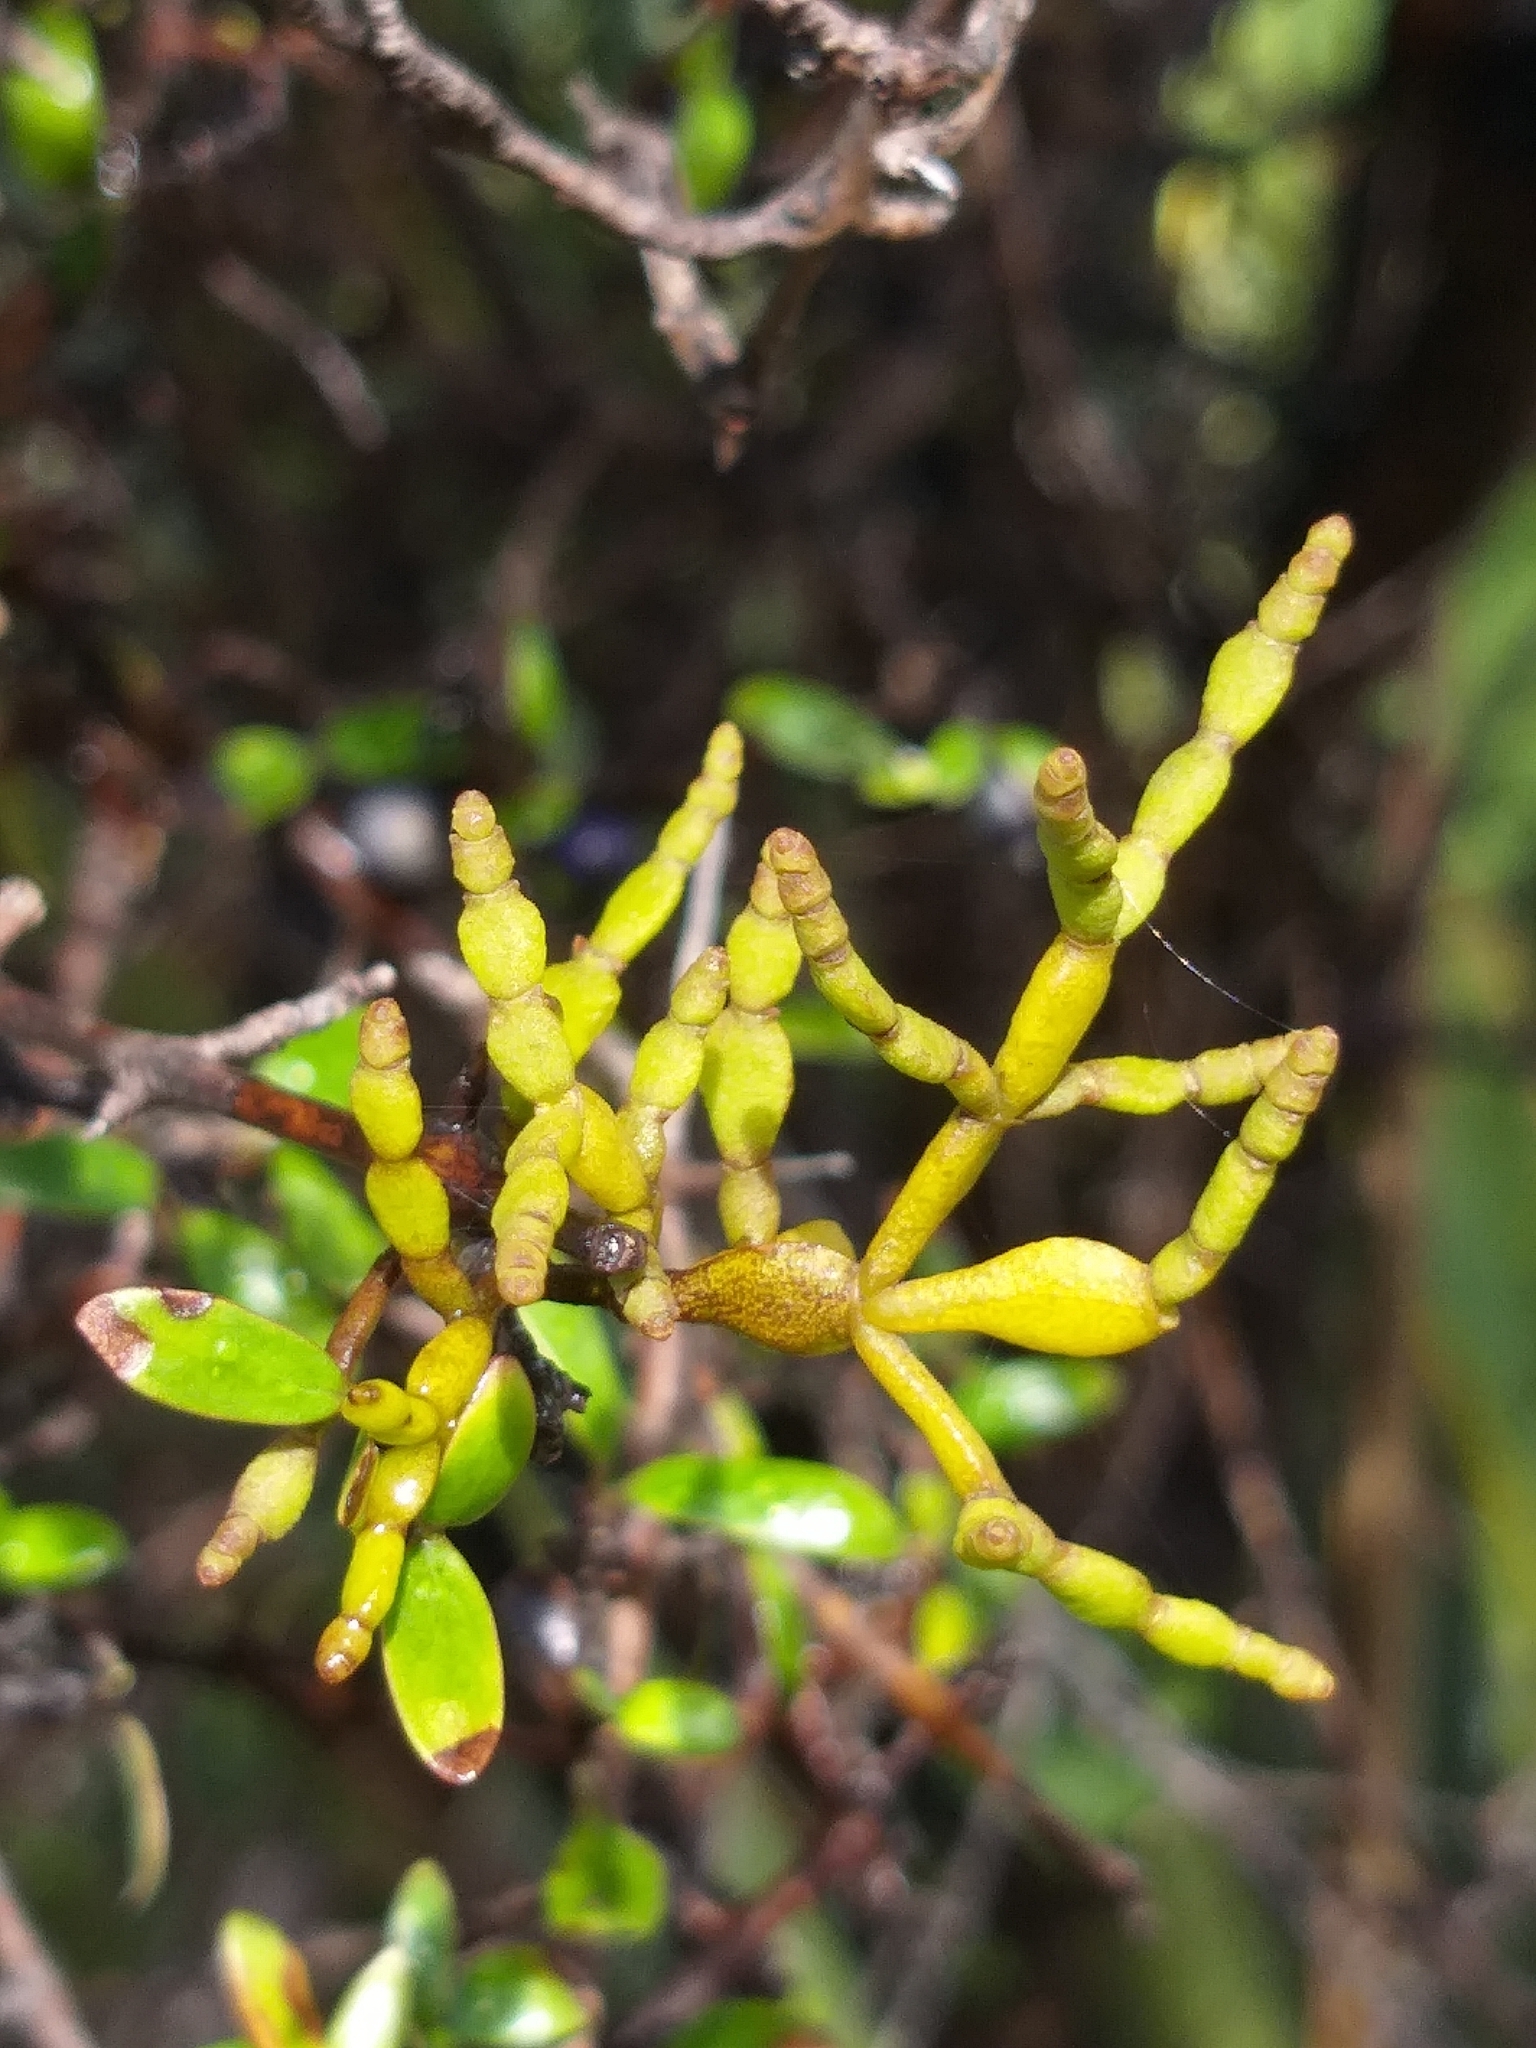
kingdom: Plantae
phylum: Tracheophyta
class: Magnoliopsida
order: Santalales
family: Viscaceae
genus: Korthalsella
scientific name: Korthalsella clavata
